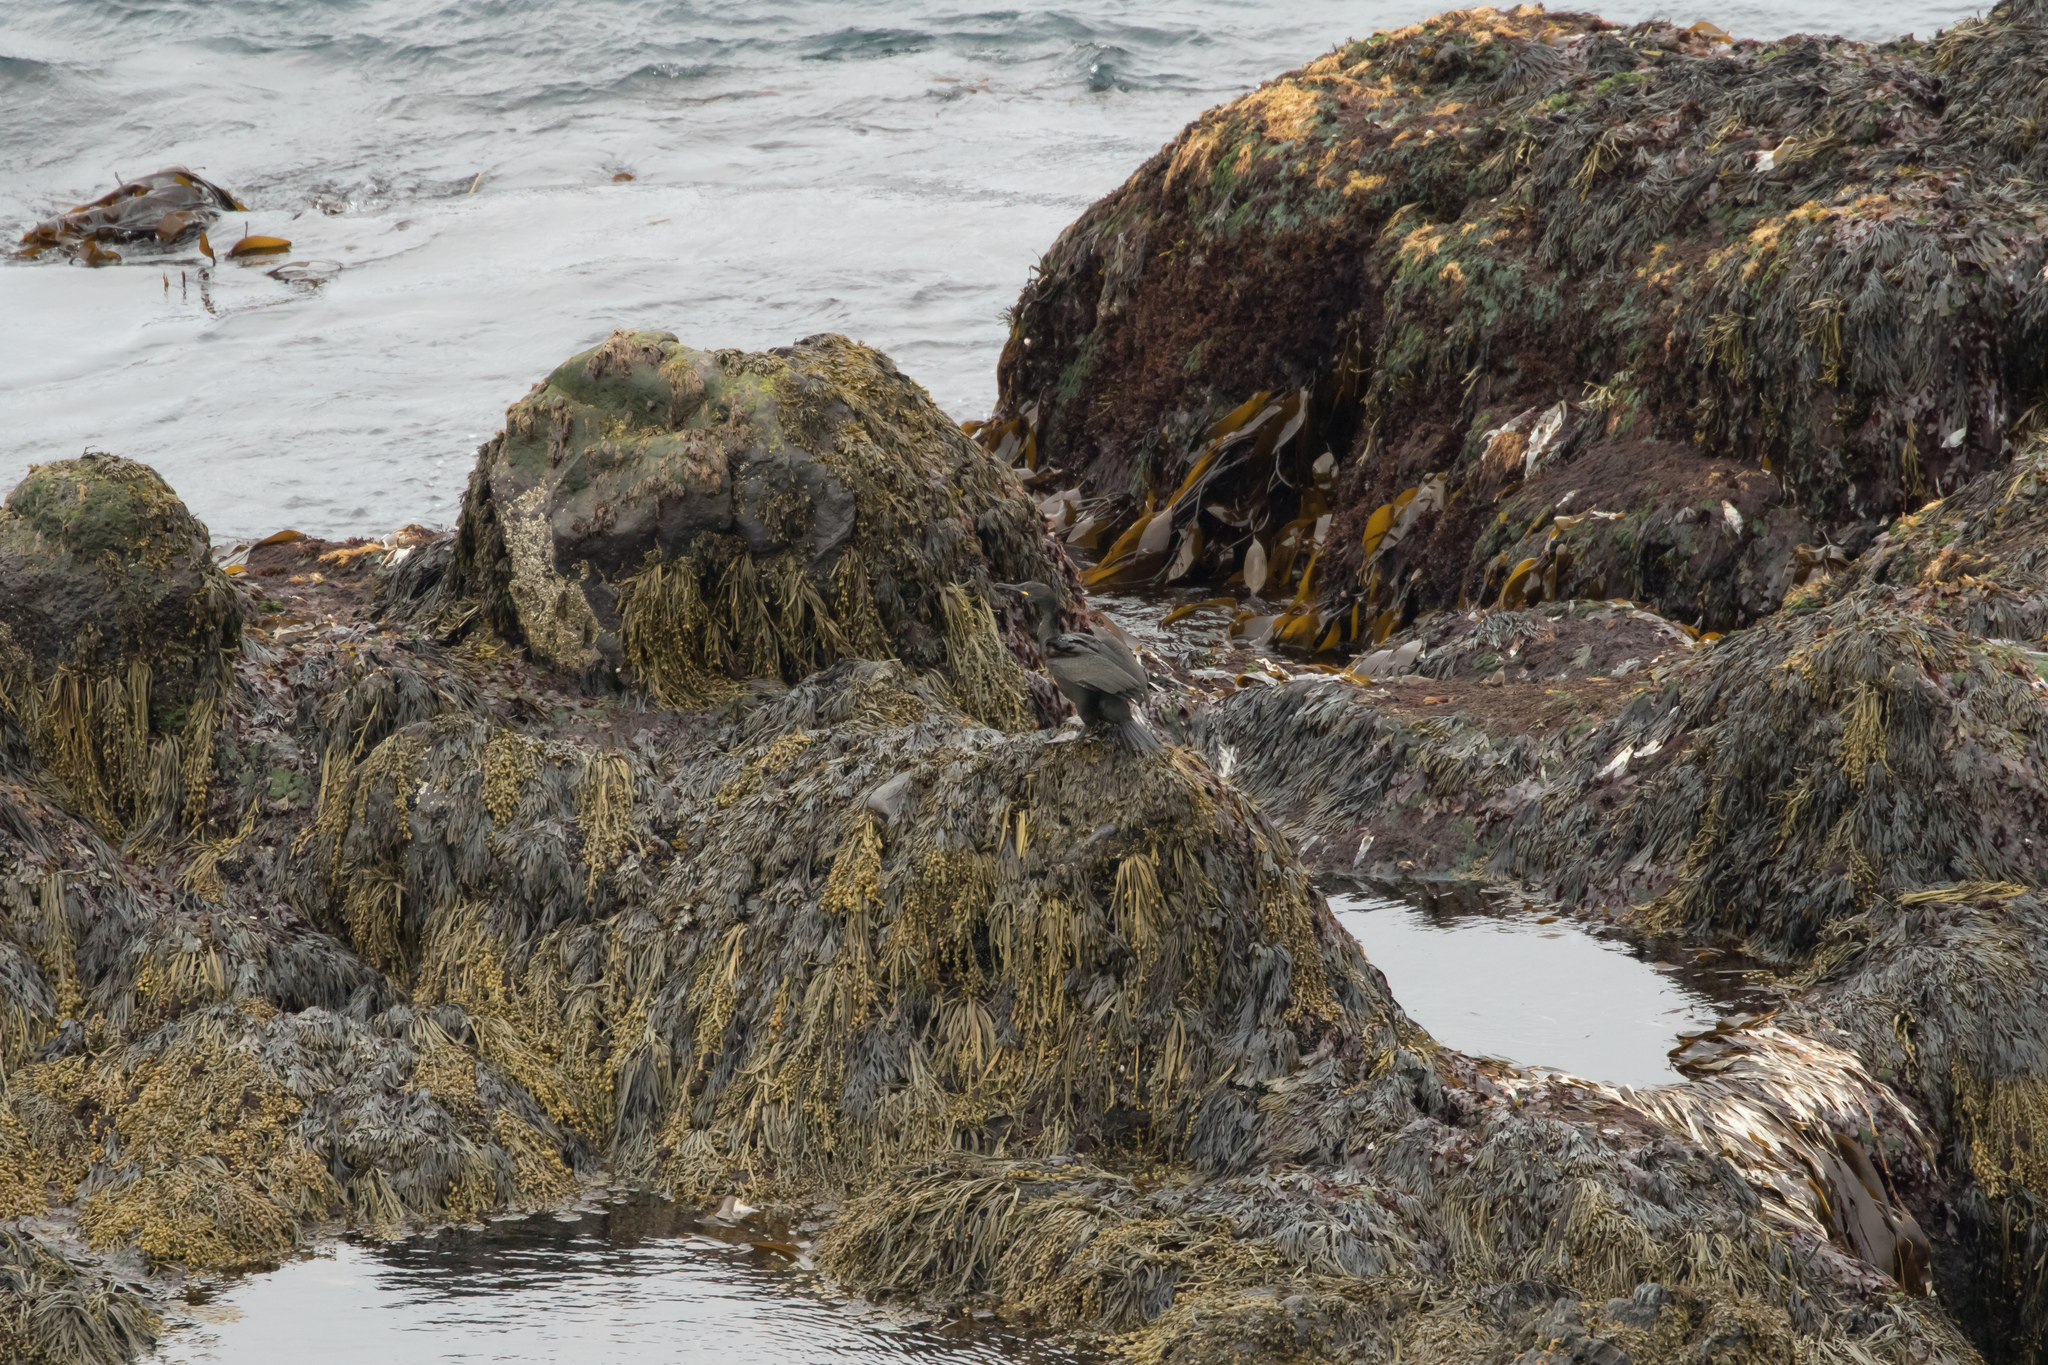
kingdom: Animalia
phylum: Chordata
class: Aves
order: Suliformes
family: Phalacrocoracidae
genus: Phalacrocorax
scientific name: Phalacrocorax aristotelis
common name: European shag
